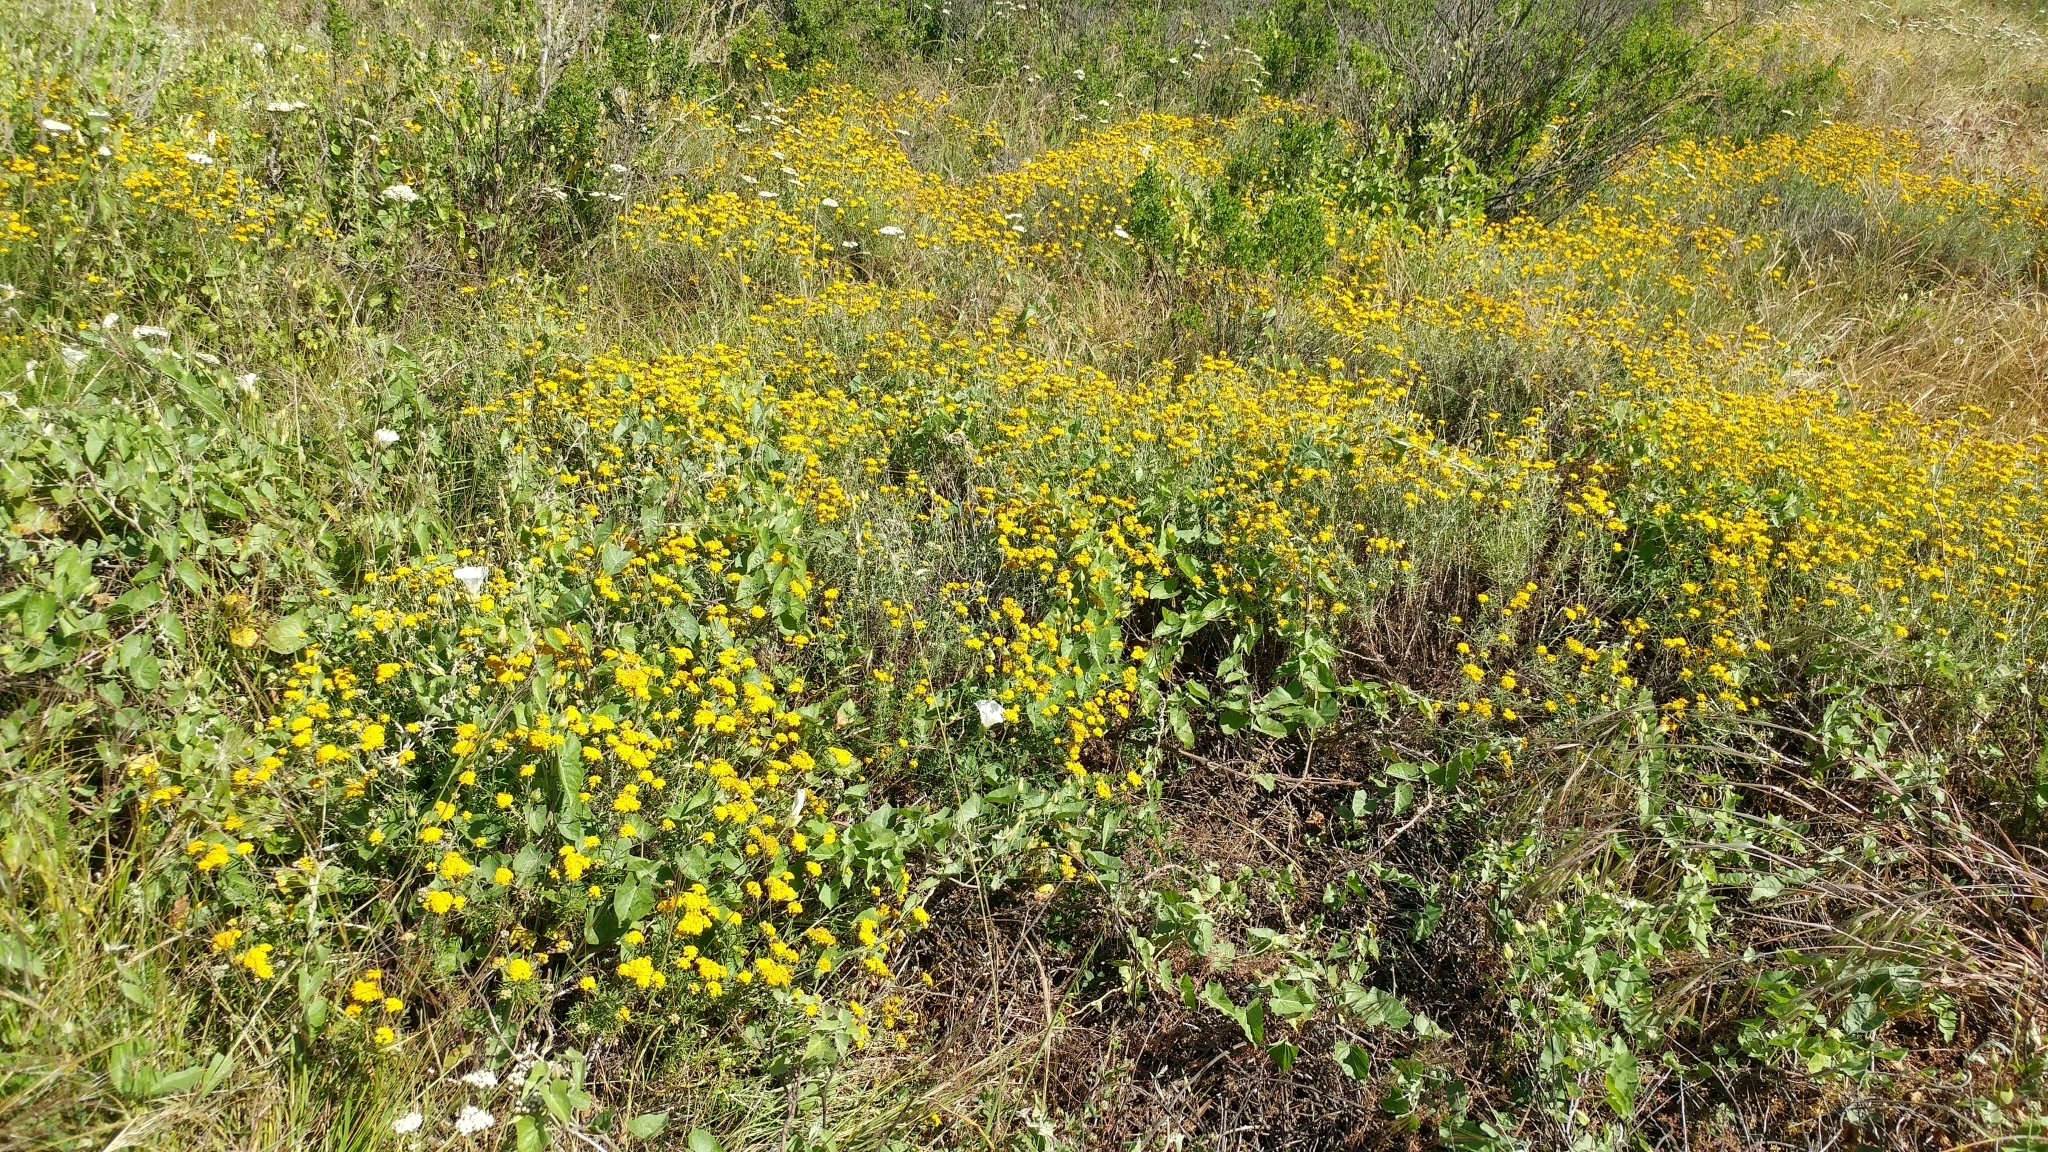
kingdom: Plantae
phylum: Tracheophyta
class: Magnoliopsida
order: Asterales
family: Asteraceae
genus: Eriophyllum
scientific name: Eriophyllum confertiflorum
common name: Golden-yarrow
